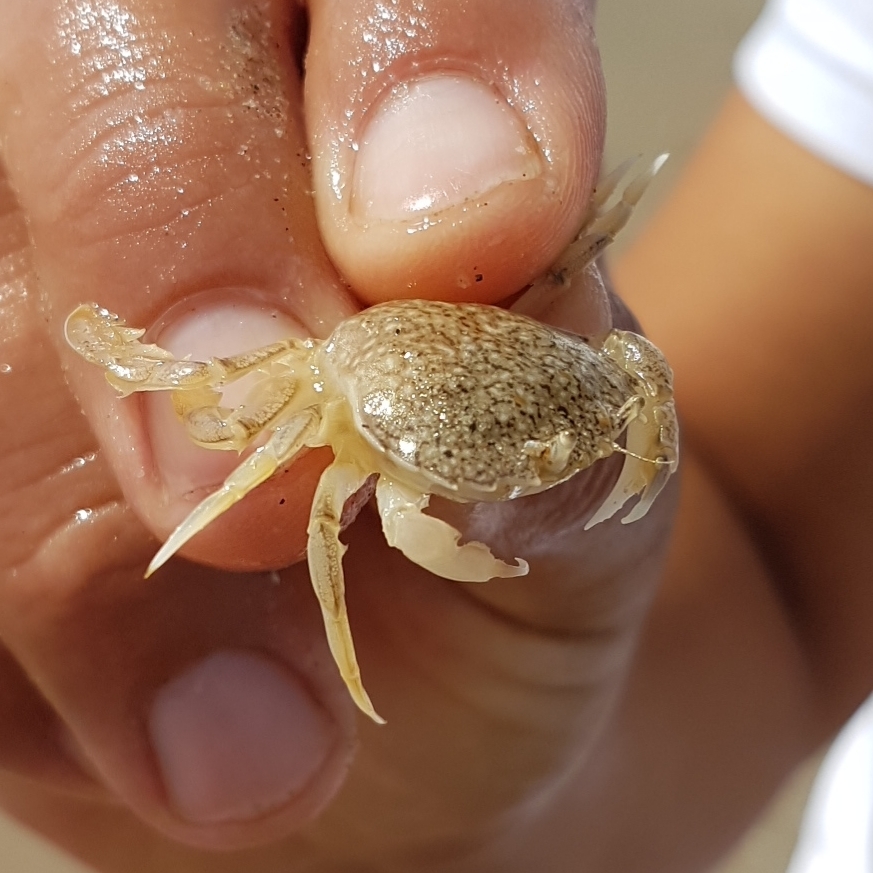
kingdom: Animalia
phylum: Arthropoda
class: Malacostraca
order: Decapoda
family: Carcinidae
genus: Portumnus
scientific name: Portumnus latipes
